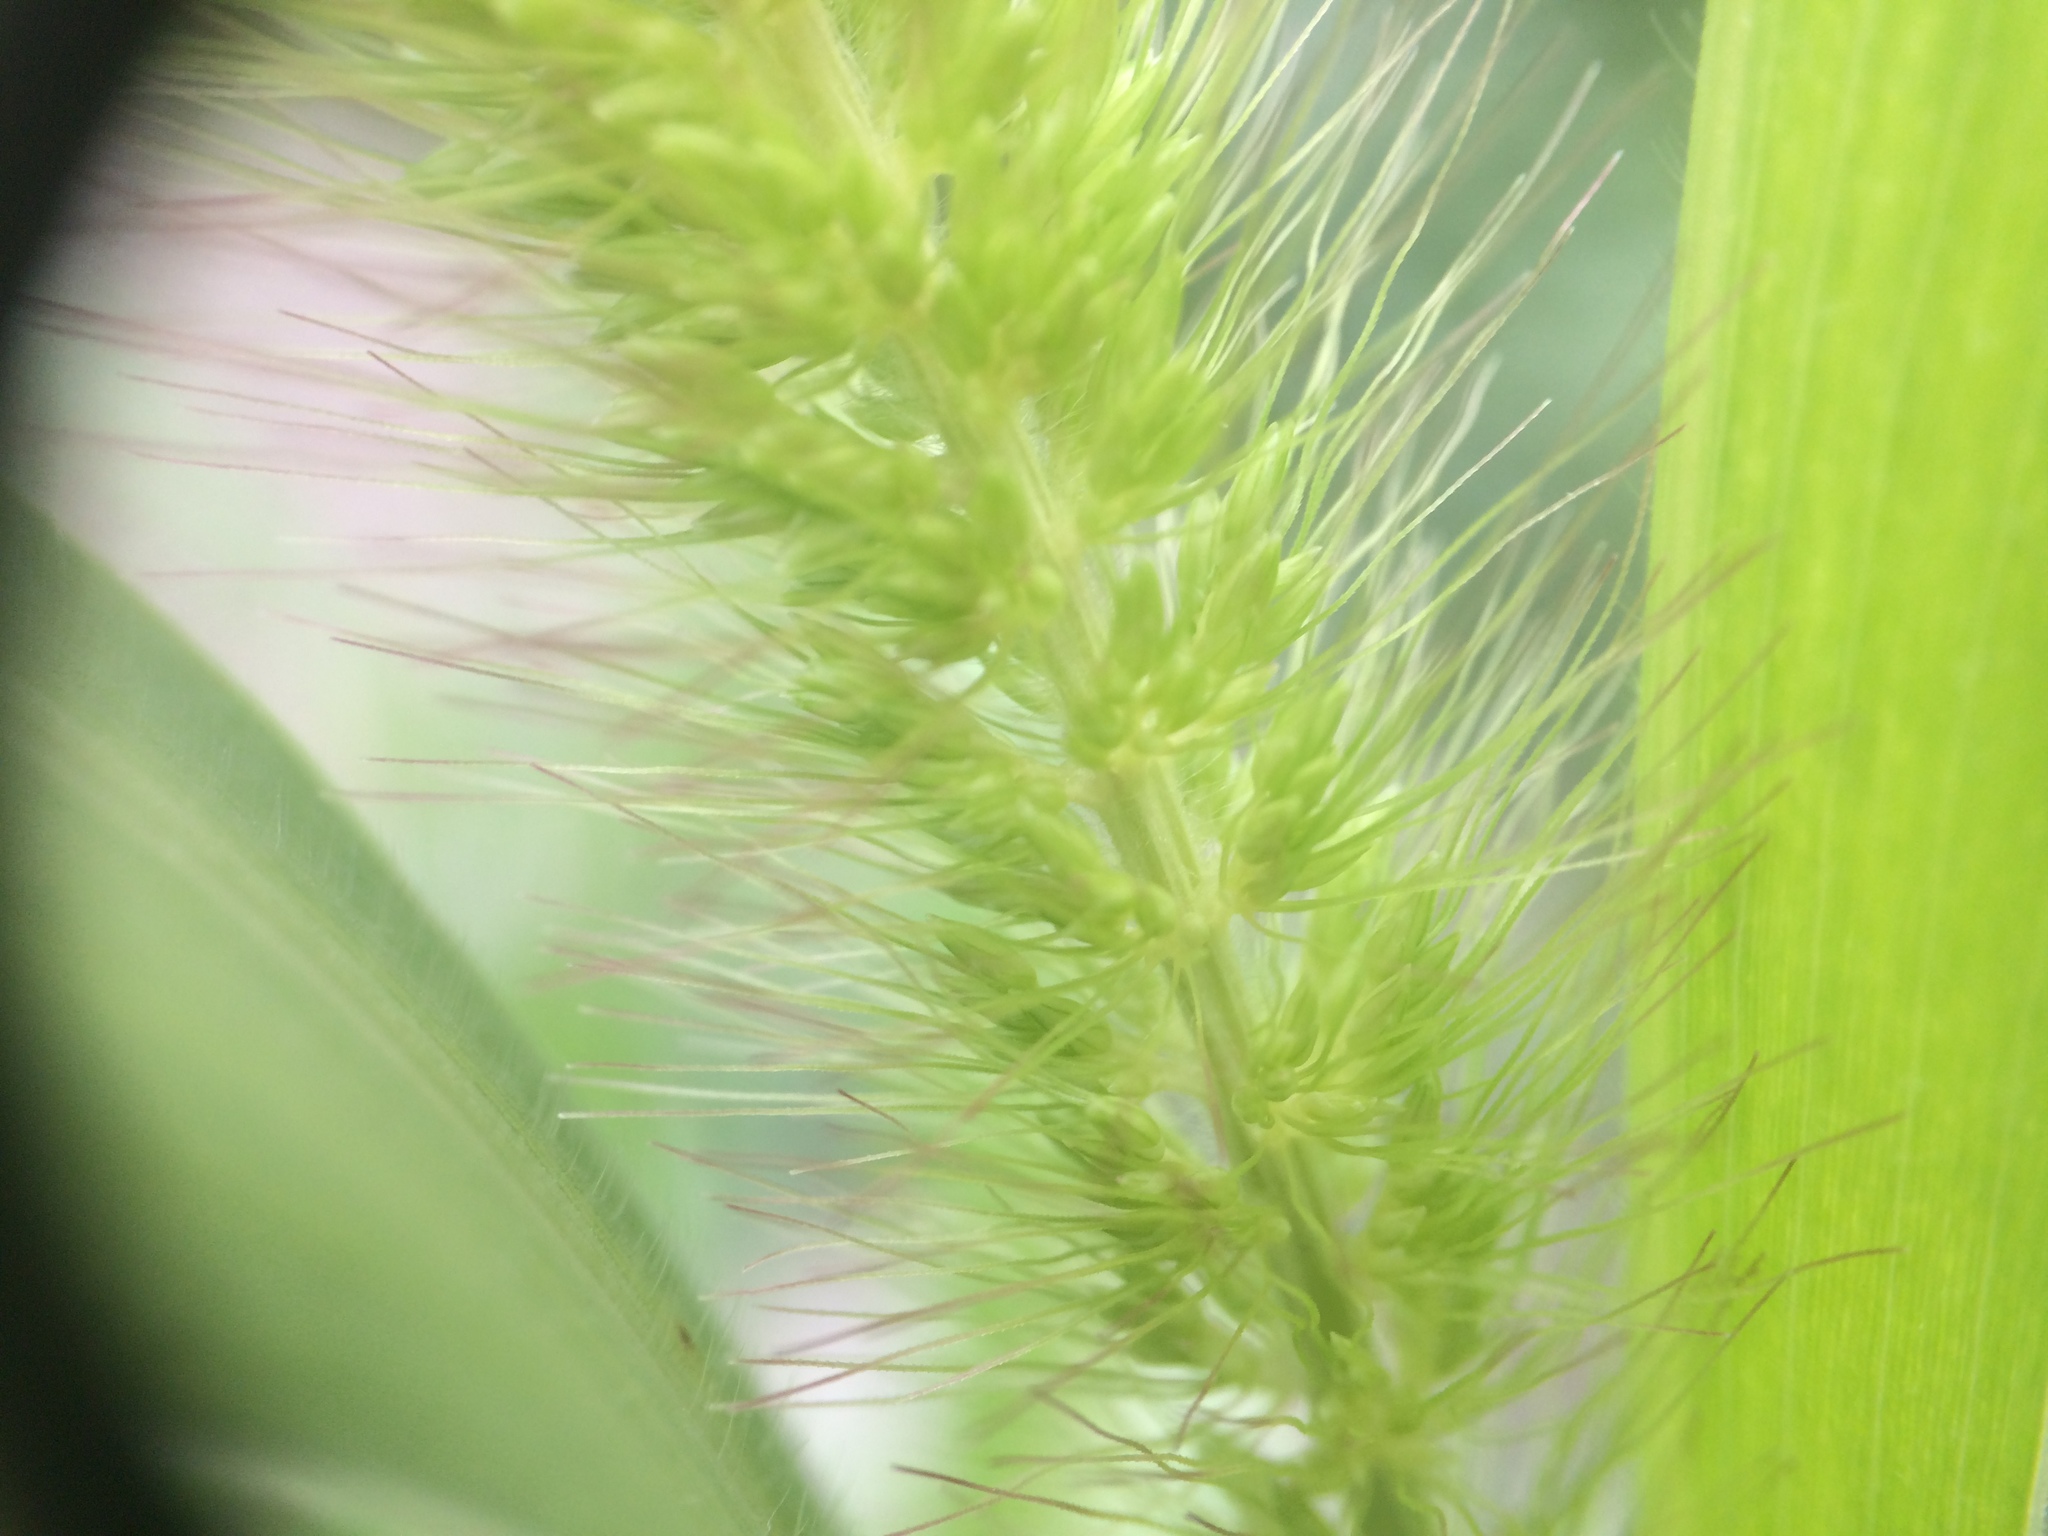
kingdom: Plantae
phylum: Tracheophyta
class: Liliopsida
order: Poales
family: Poaceae
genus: Setaria
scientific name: Setaria faberi
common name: Nodding bristle-grass
